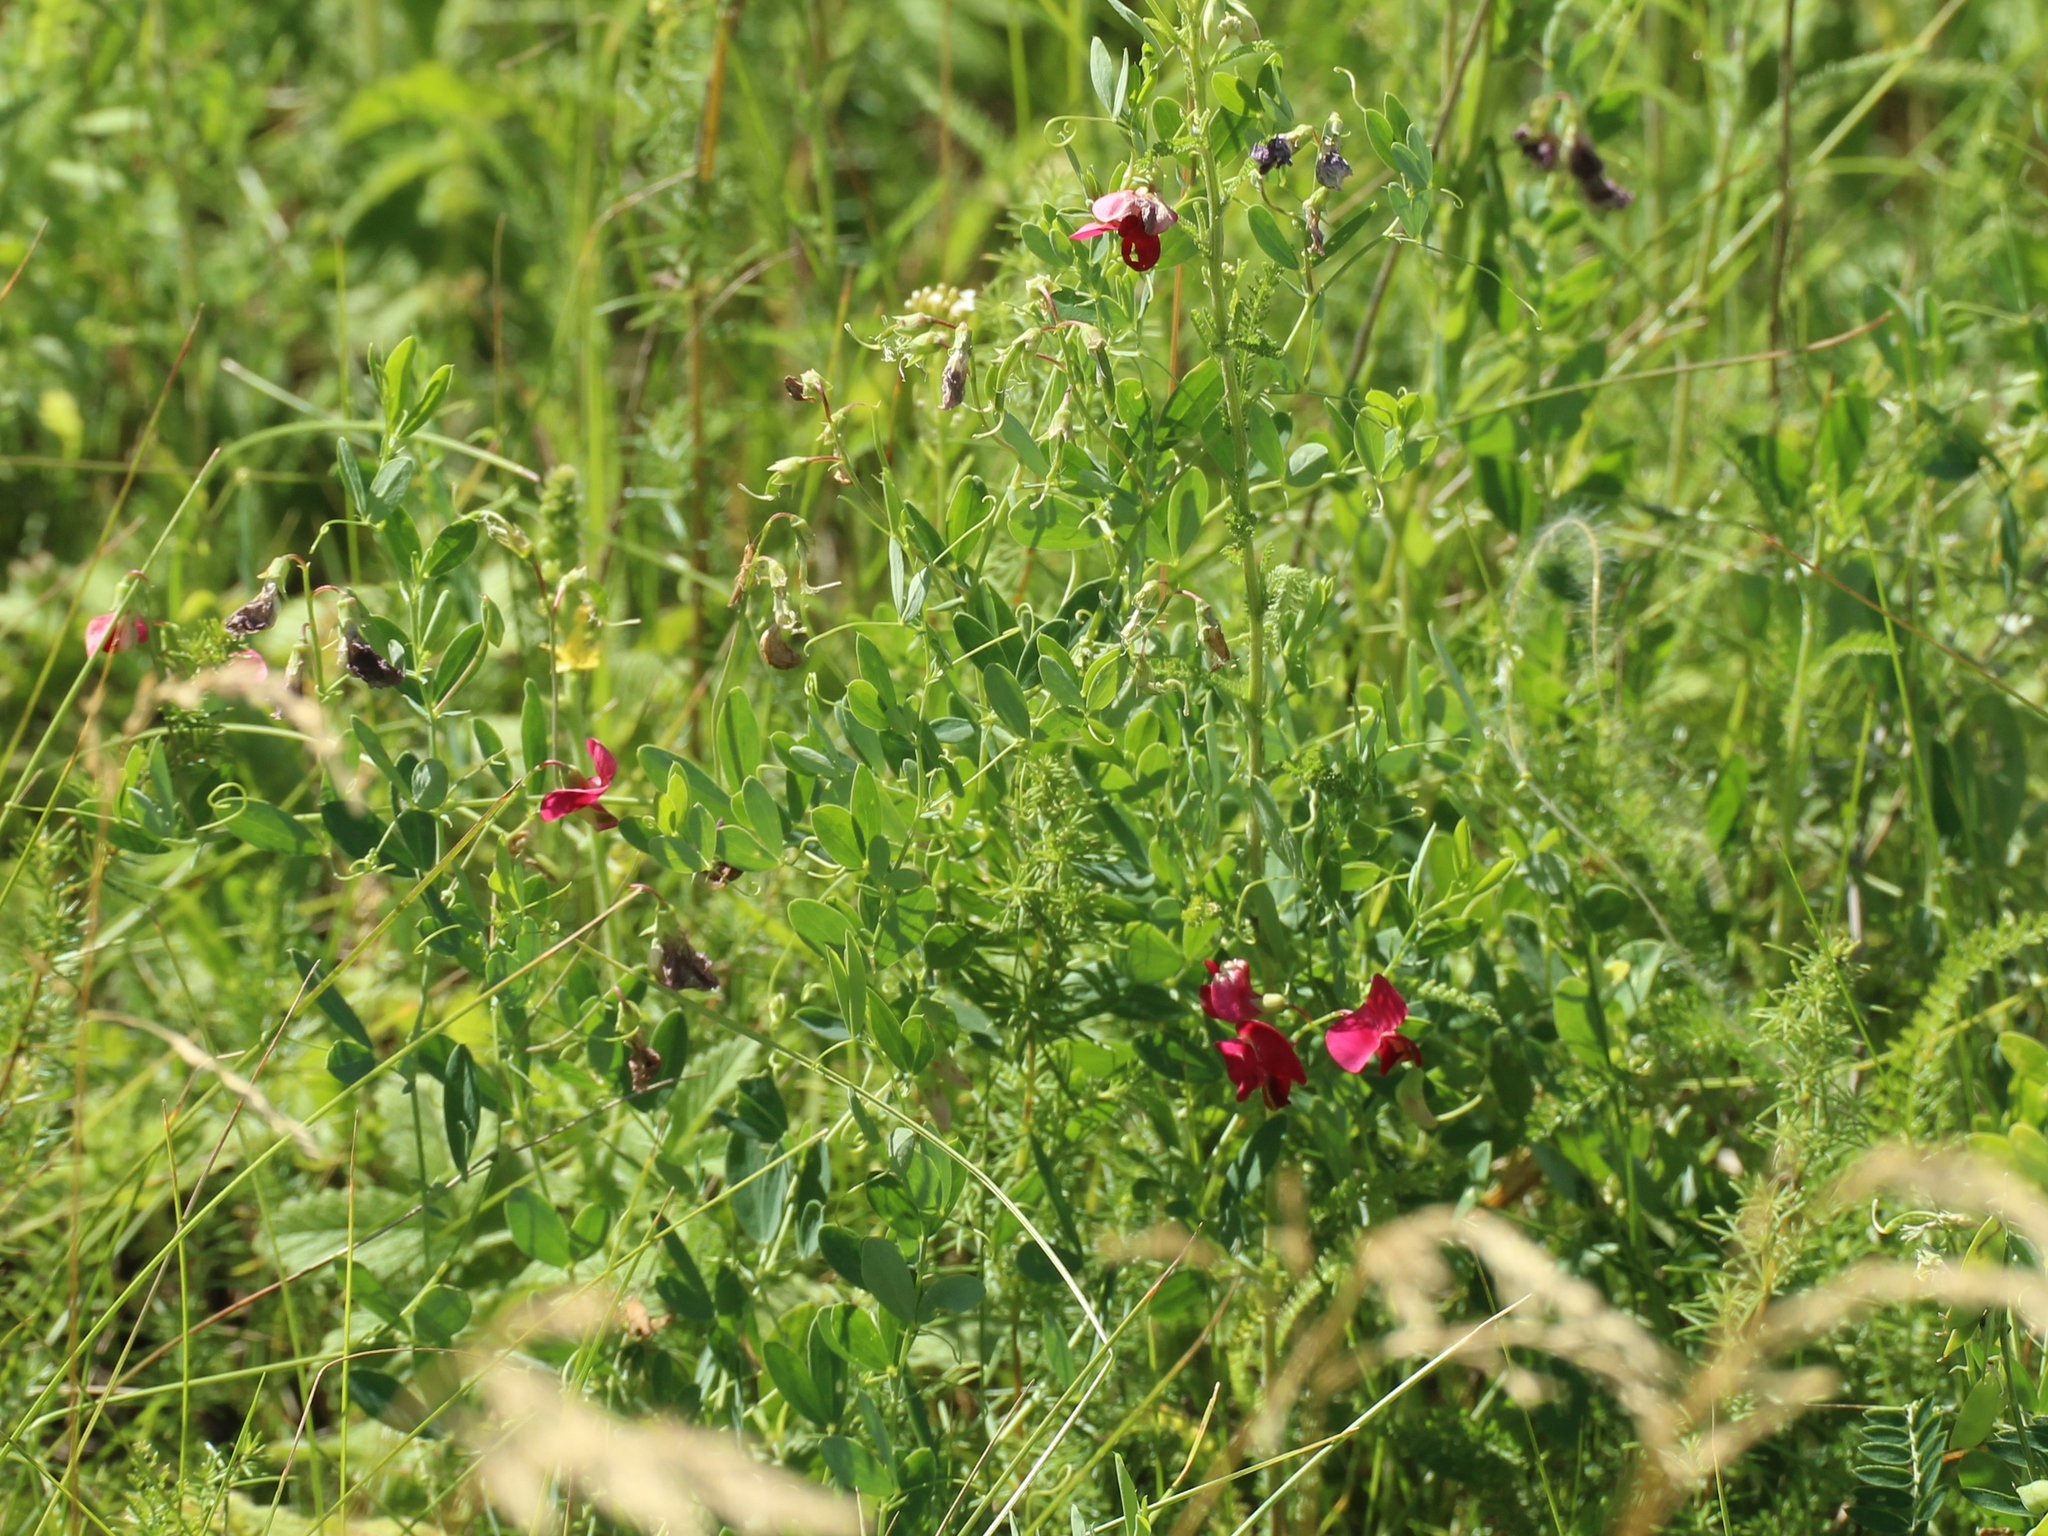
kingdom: Plantae
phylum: Tracheophyta
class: Magnoliopsida
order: Fabales
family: Fabaceae
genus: Lathyrus
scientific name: Lathyrus tuberosus
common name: Tuberous pea
